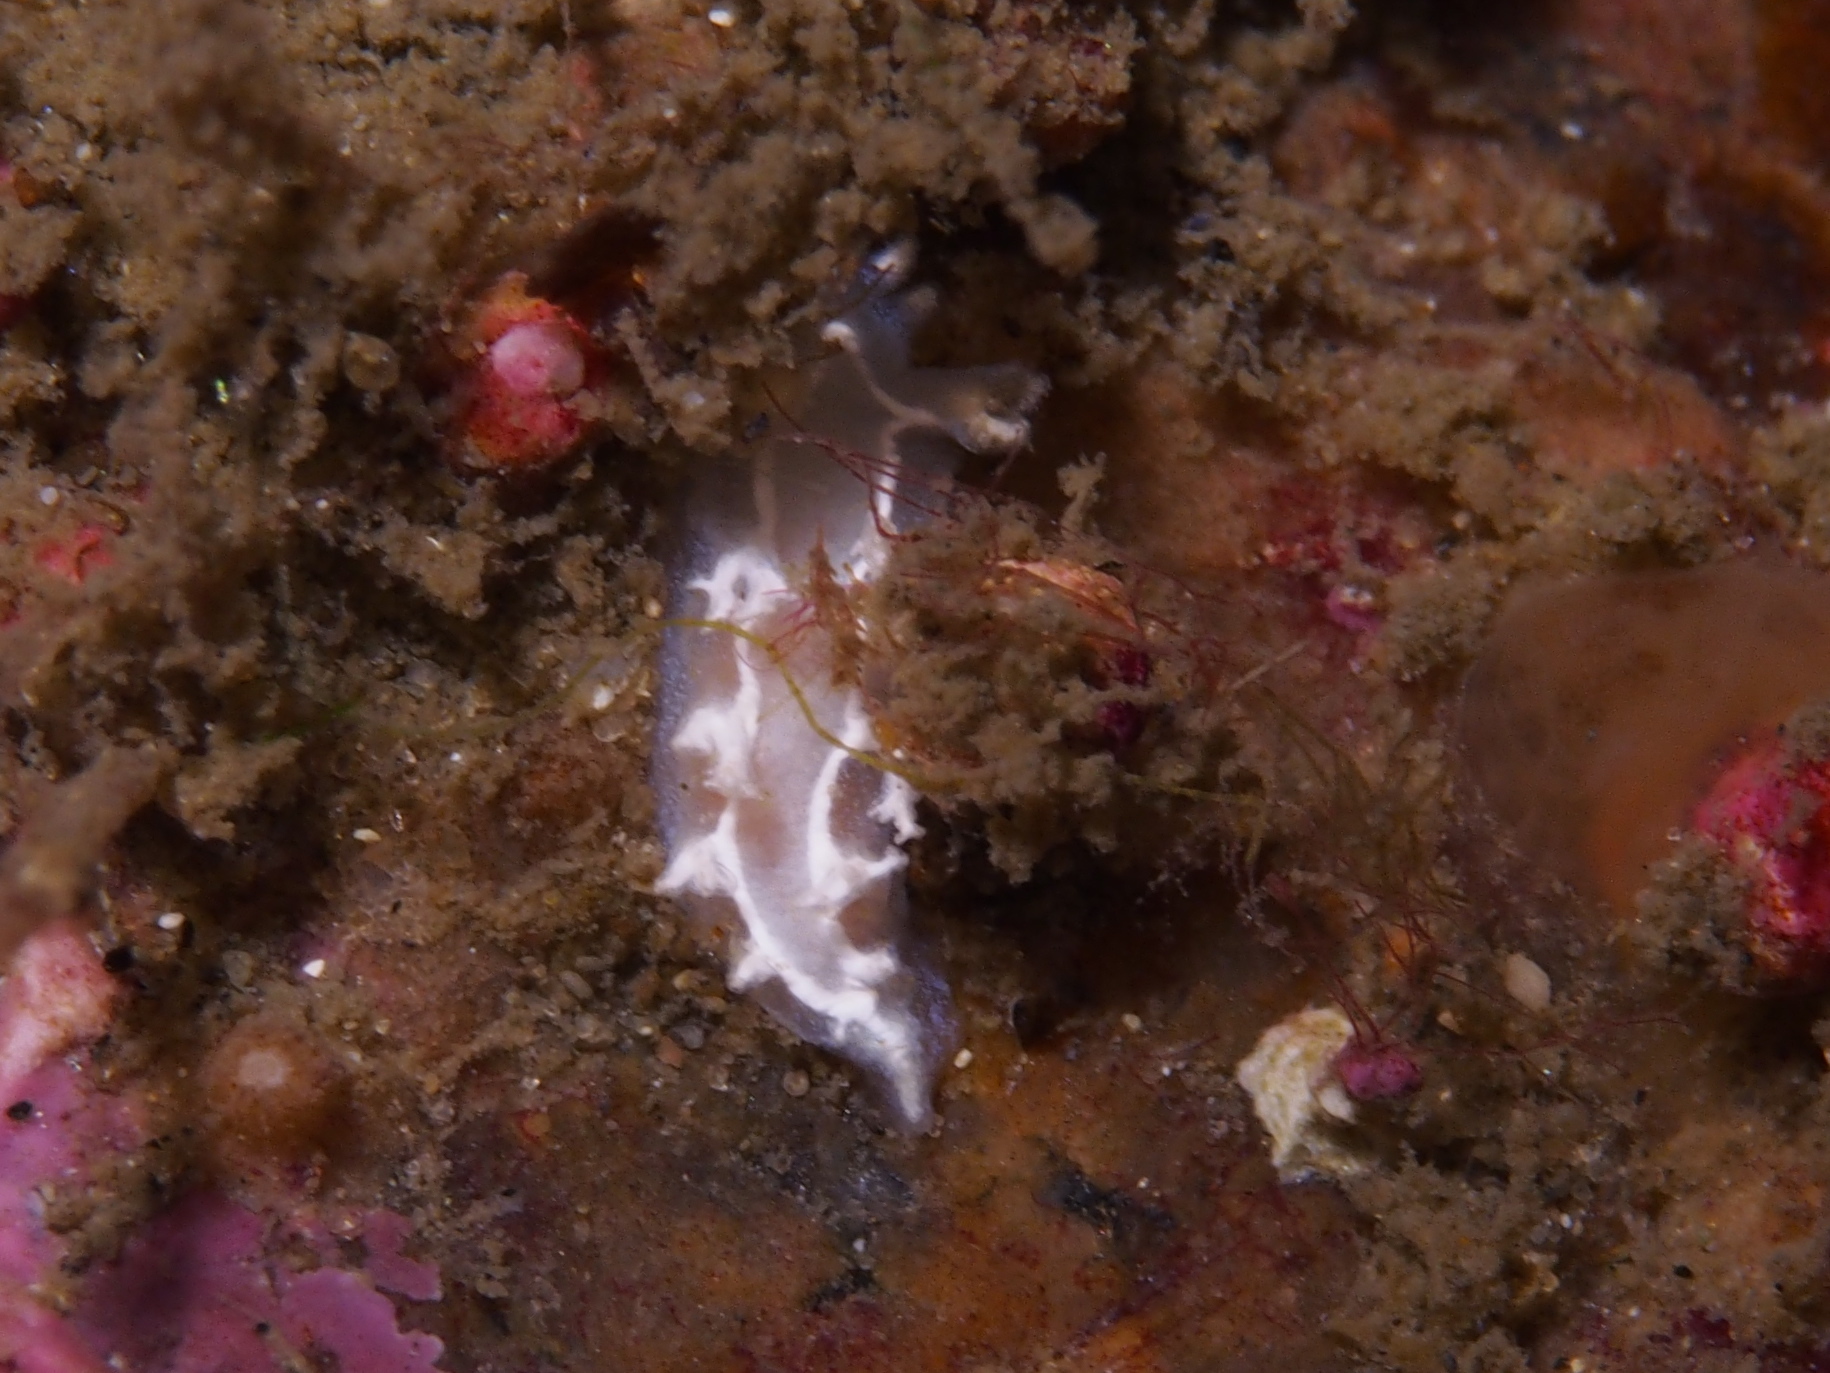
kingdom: Animalia
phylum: Mollusca
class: Gastropoda
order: Nudibranchia
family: Tritoniidae
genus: Duvaucelia
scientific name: Duvaucelia lineata
